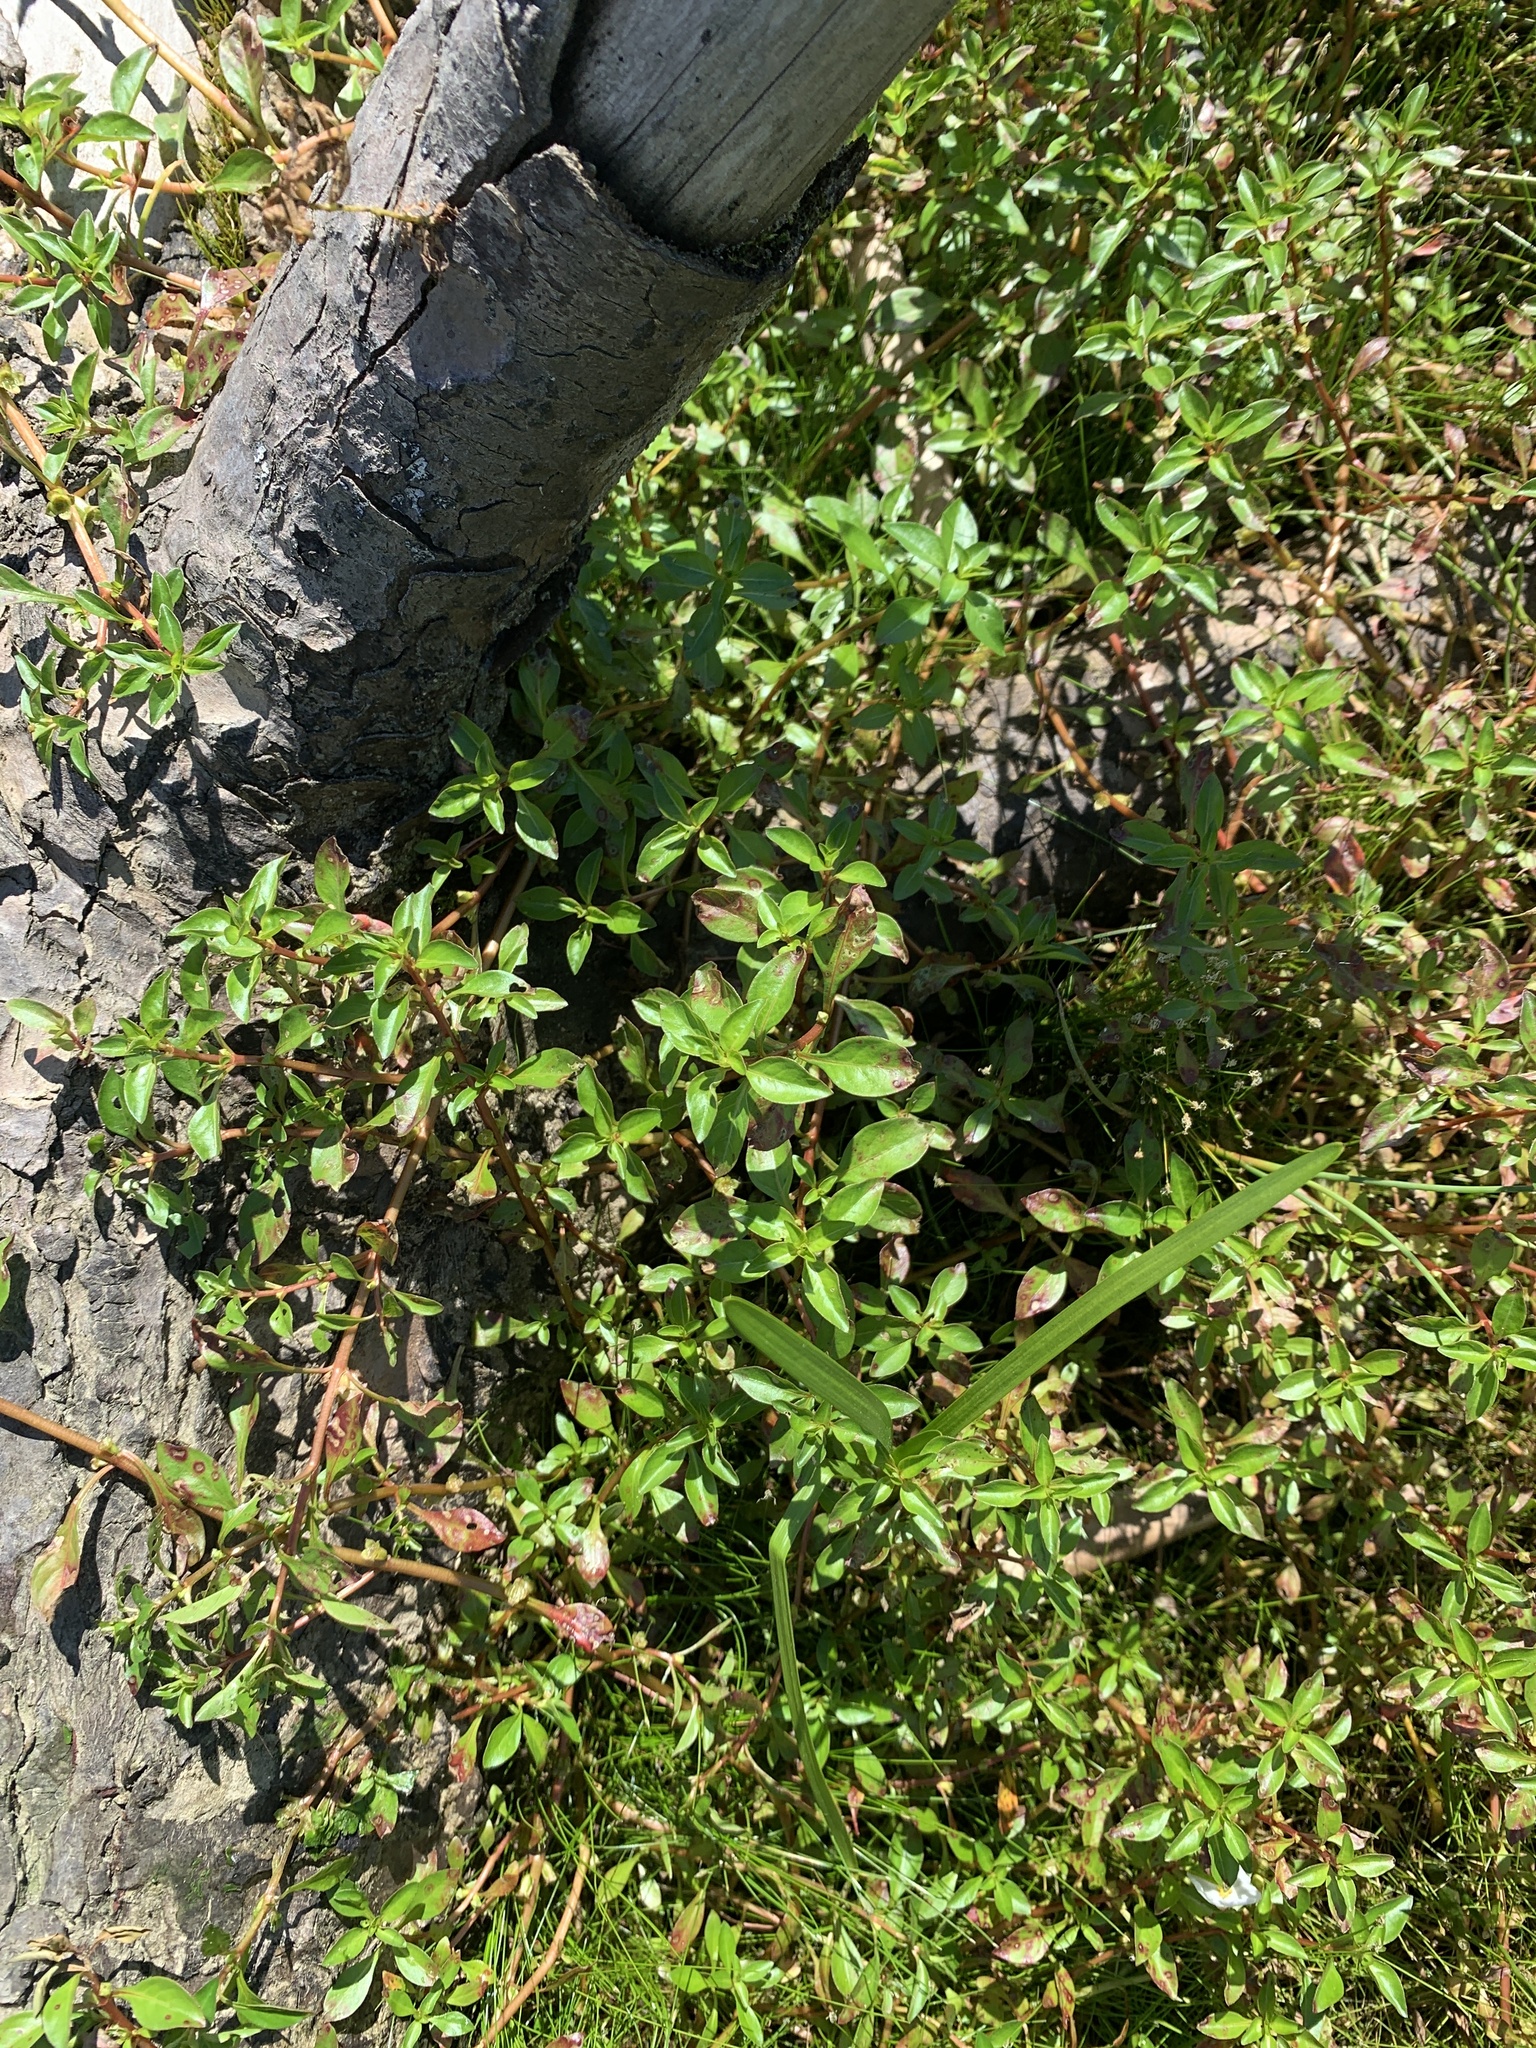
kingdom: Plantae
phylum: Tracheophyta
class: Magnoliopsida
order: Myrtales
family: Onagraceae
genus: Ludwigia
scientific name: Ludwigia palustris
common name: Hampshire-purslane
